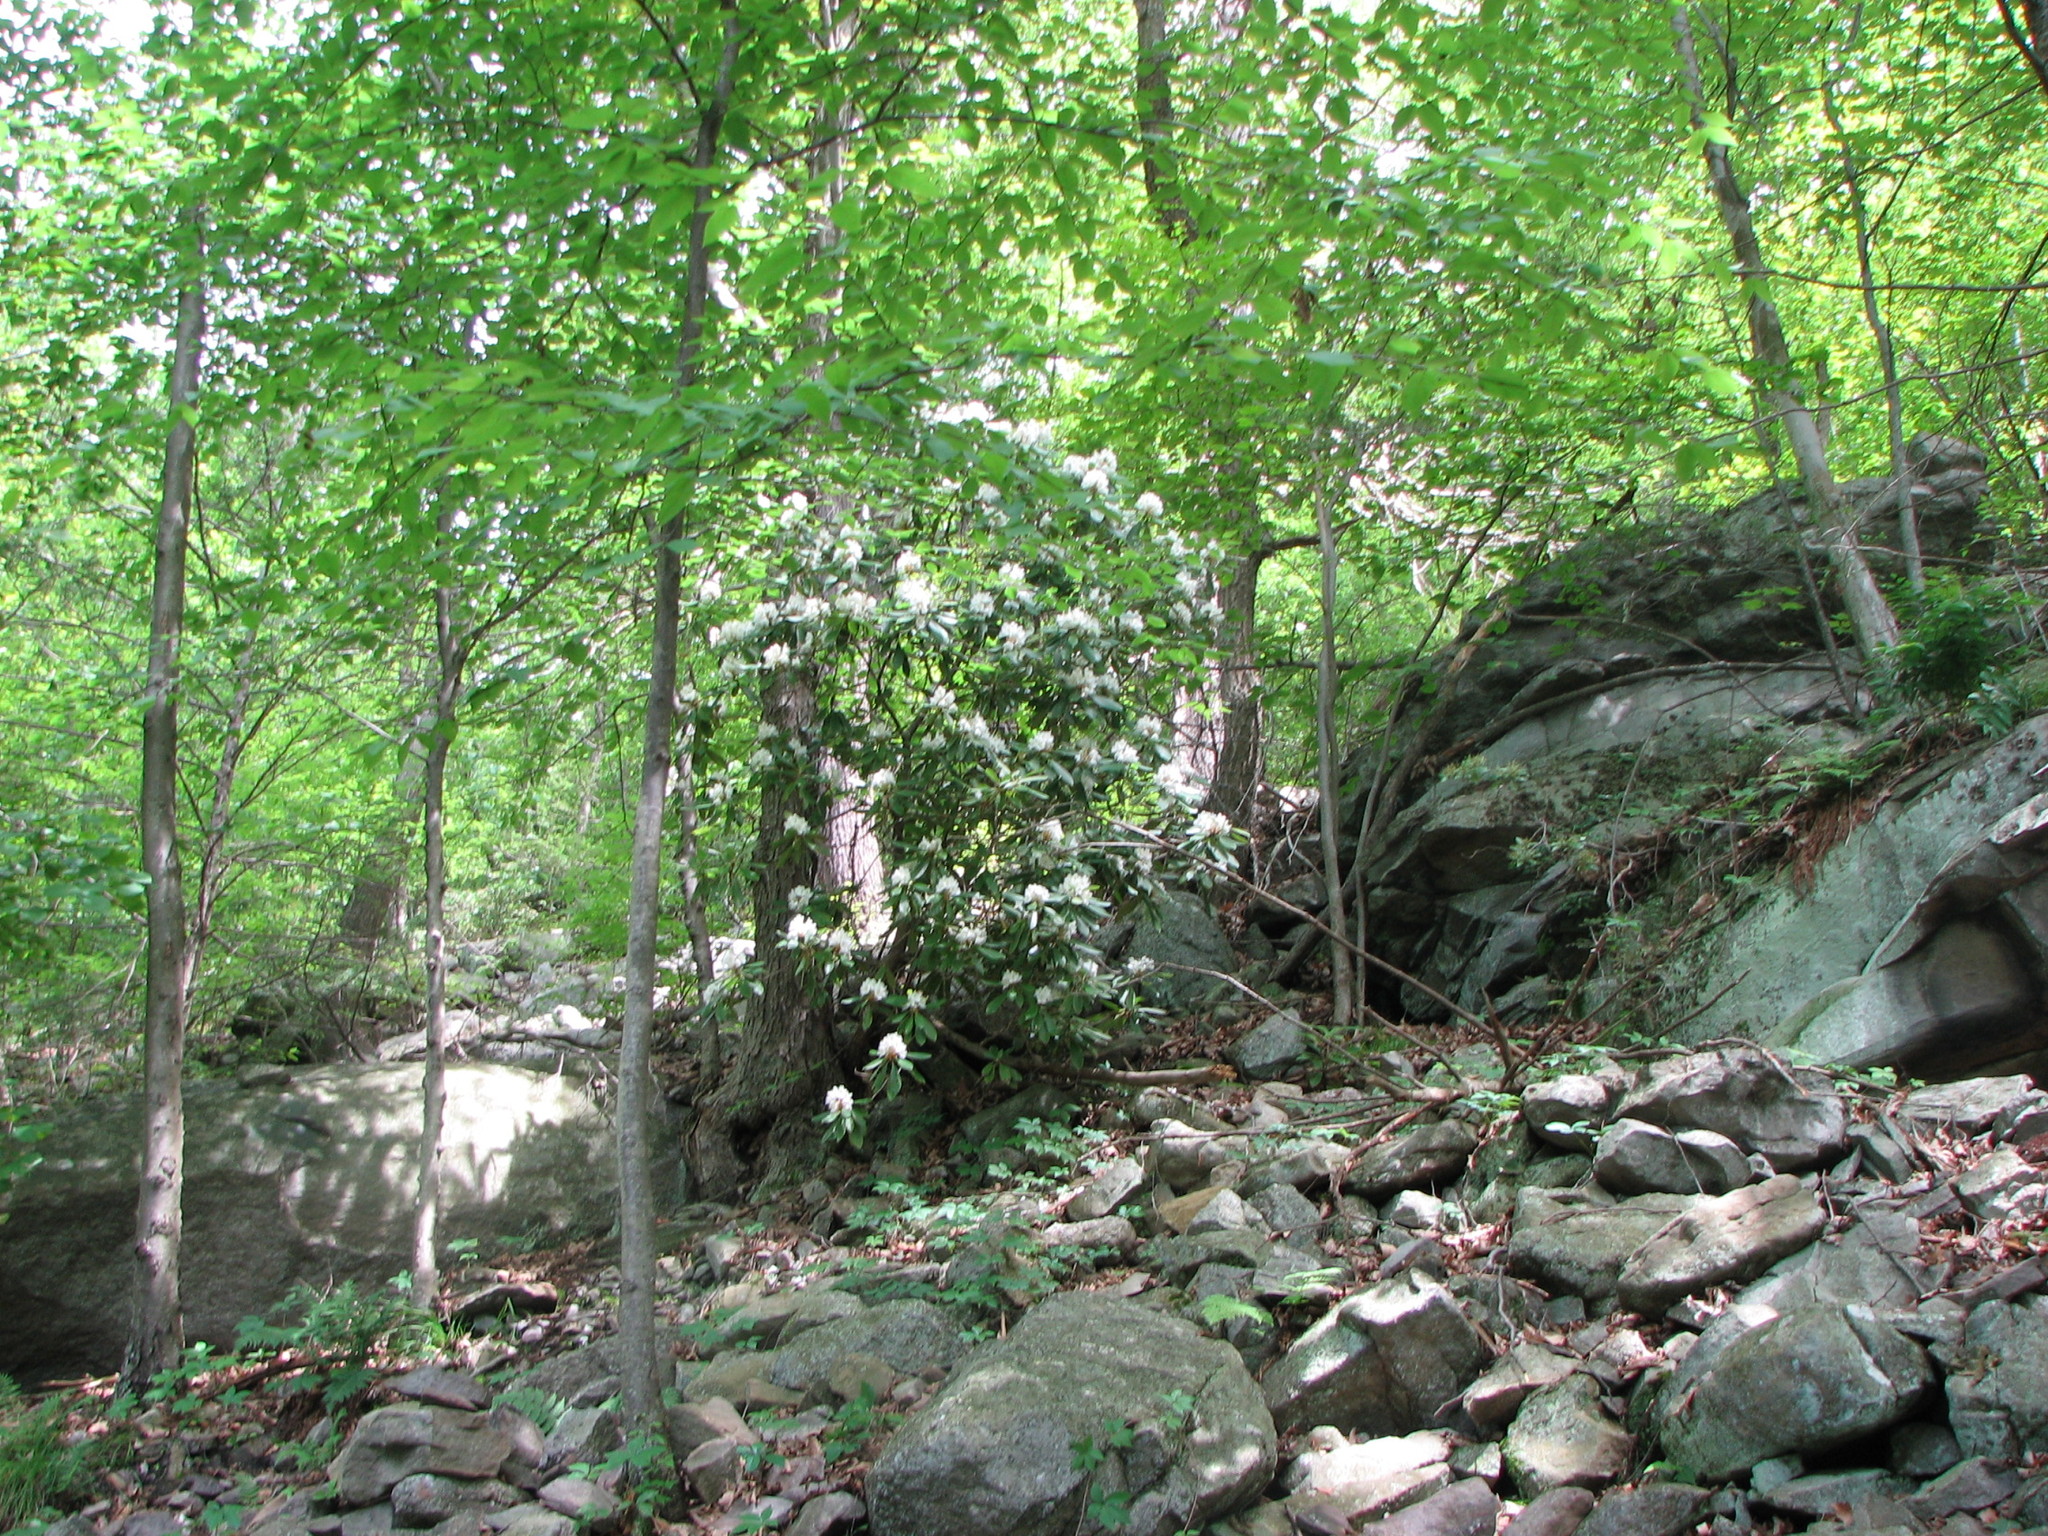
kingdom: Plantae
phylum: Tracheophyta
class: Magnoliopsida
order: Ericales
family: Ericaceae
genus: Rhododendron
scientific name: Rhododendron maximum
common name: Great rhododendron
